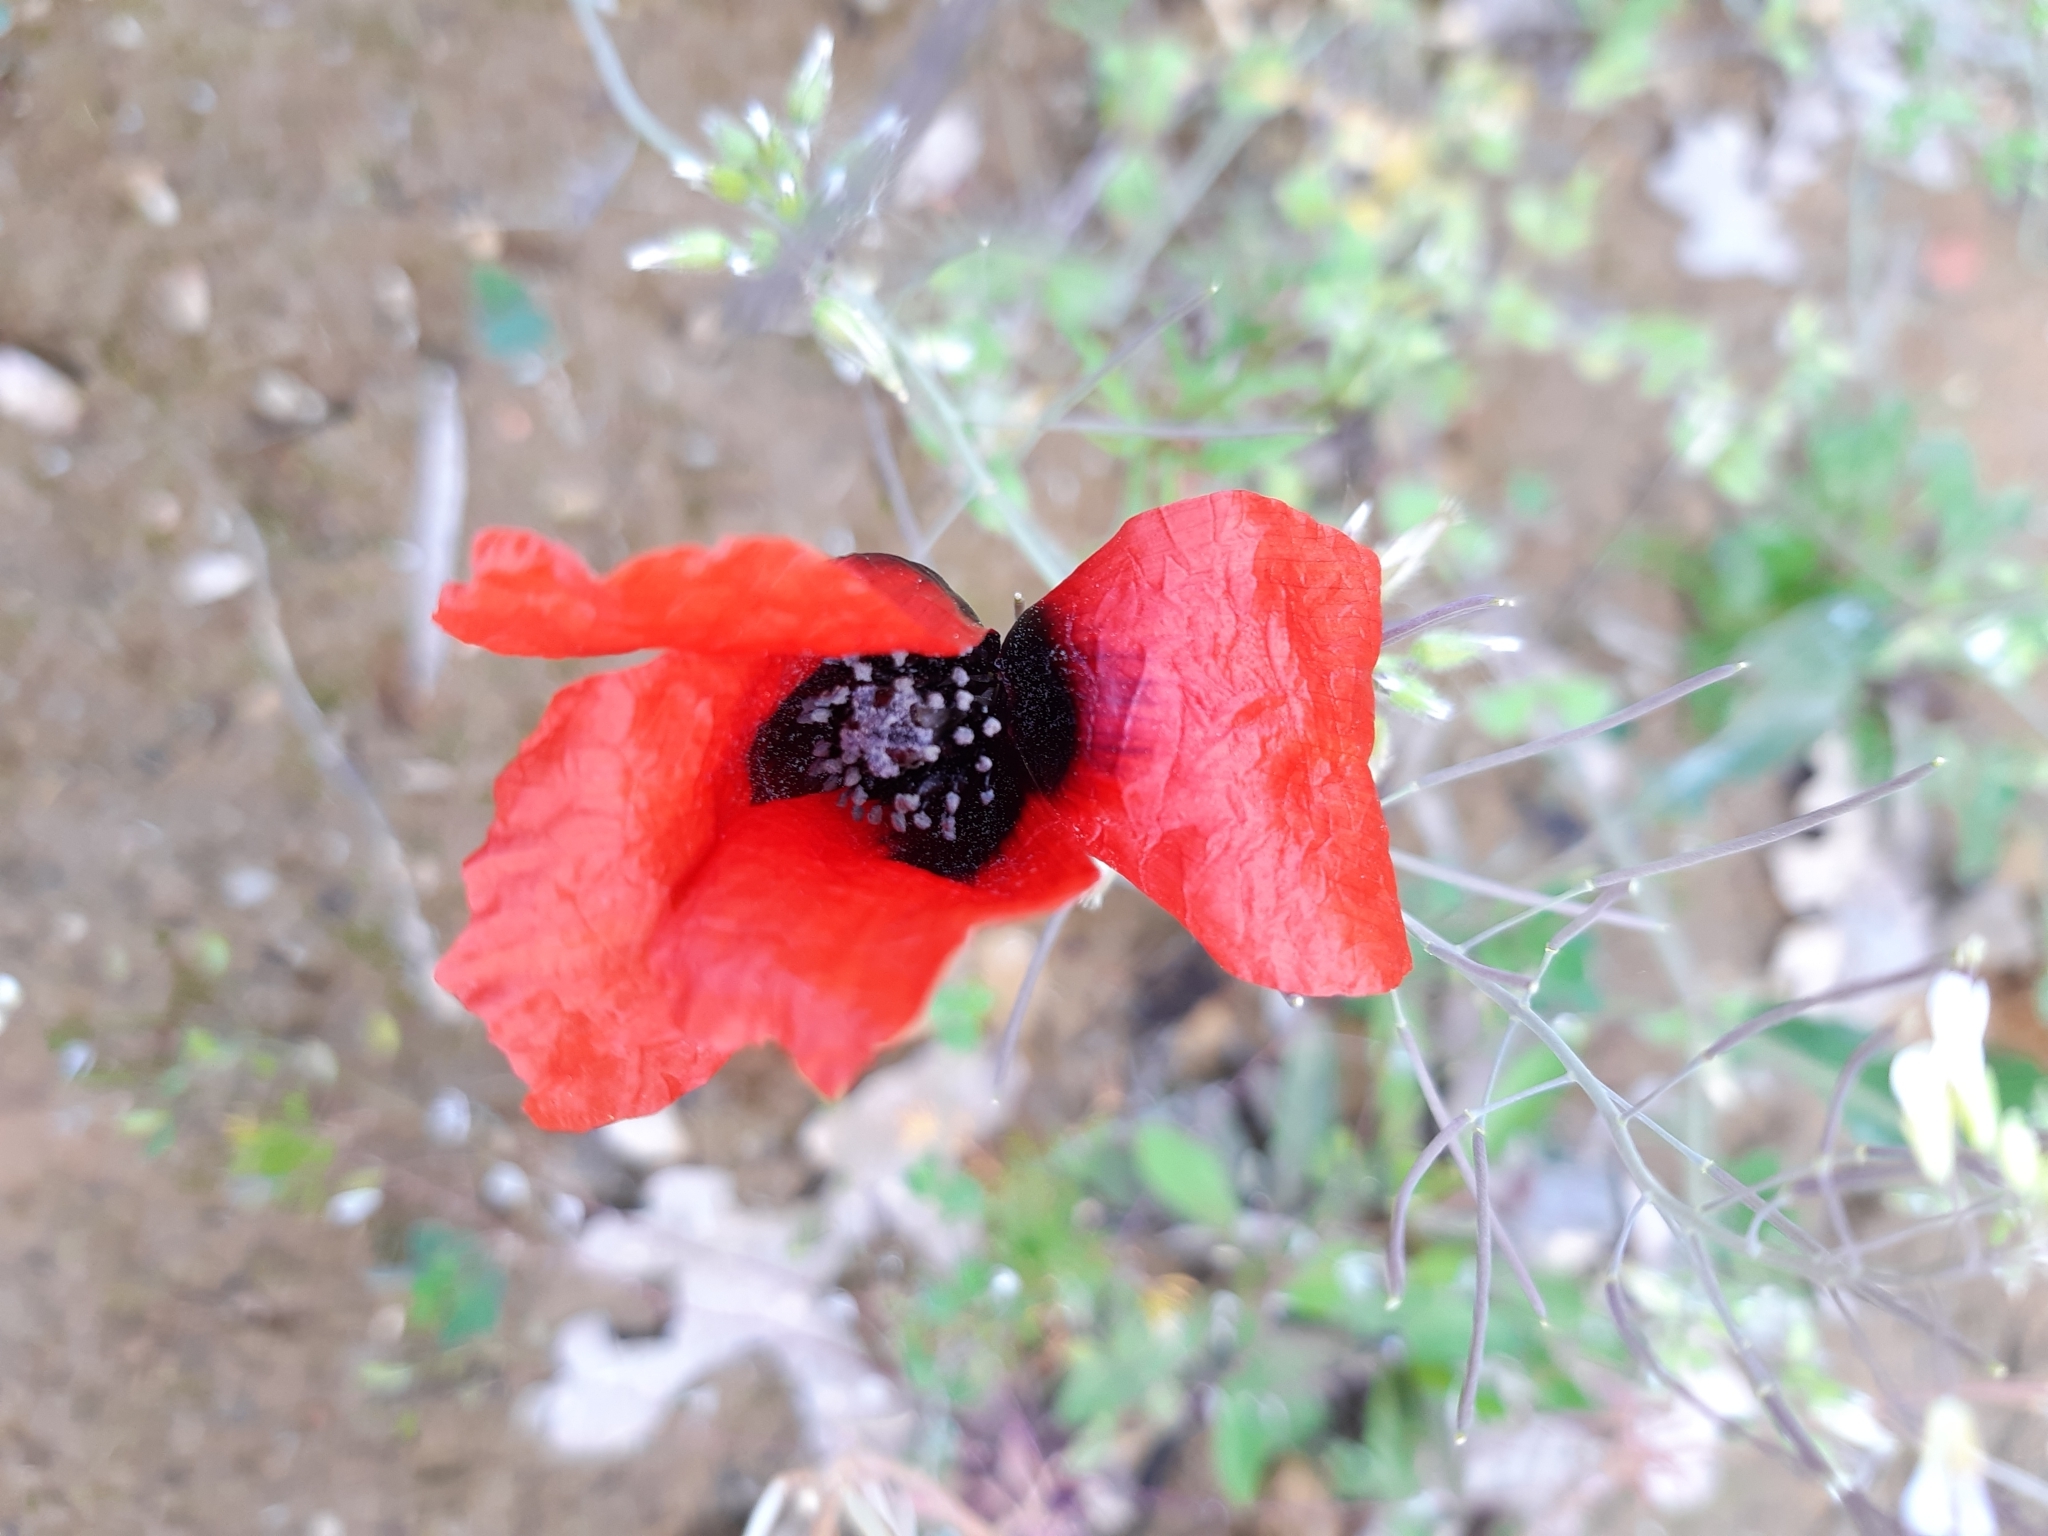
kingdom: Plantae
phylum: Tracheophyta
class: Magnoliopsida
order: Ranunculales
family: Papaveraceae
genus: Roemeria
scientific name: Roemeria argemone
